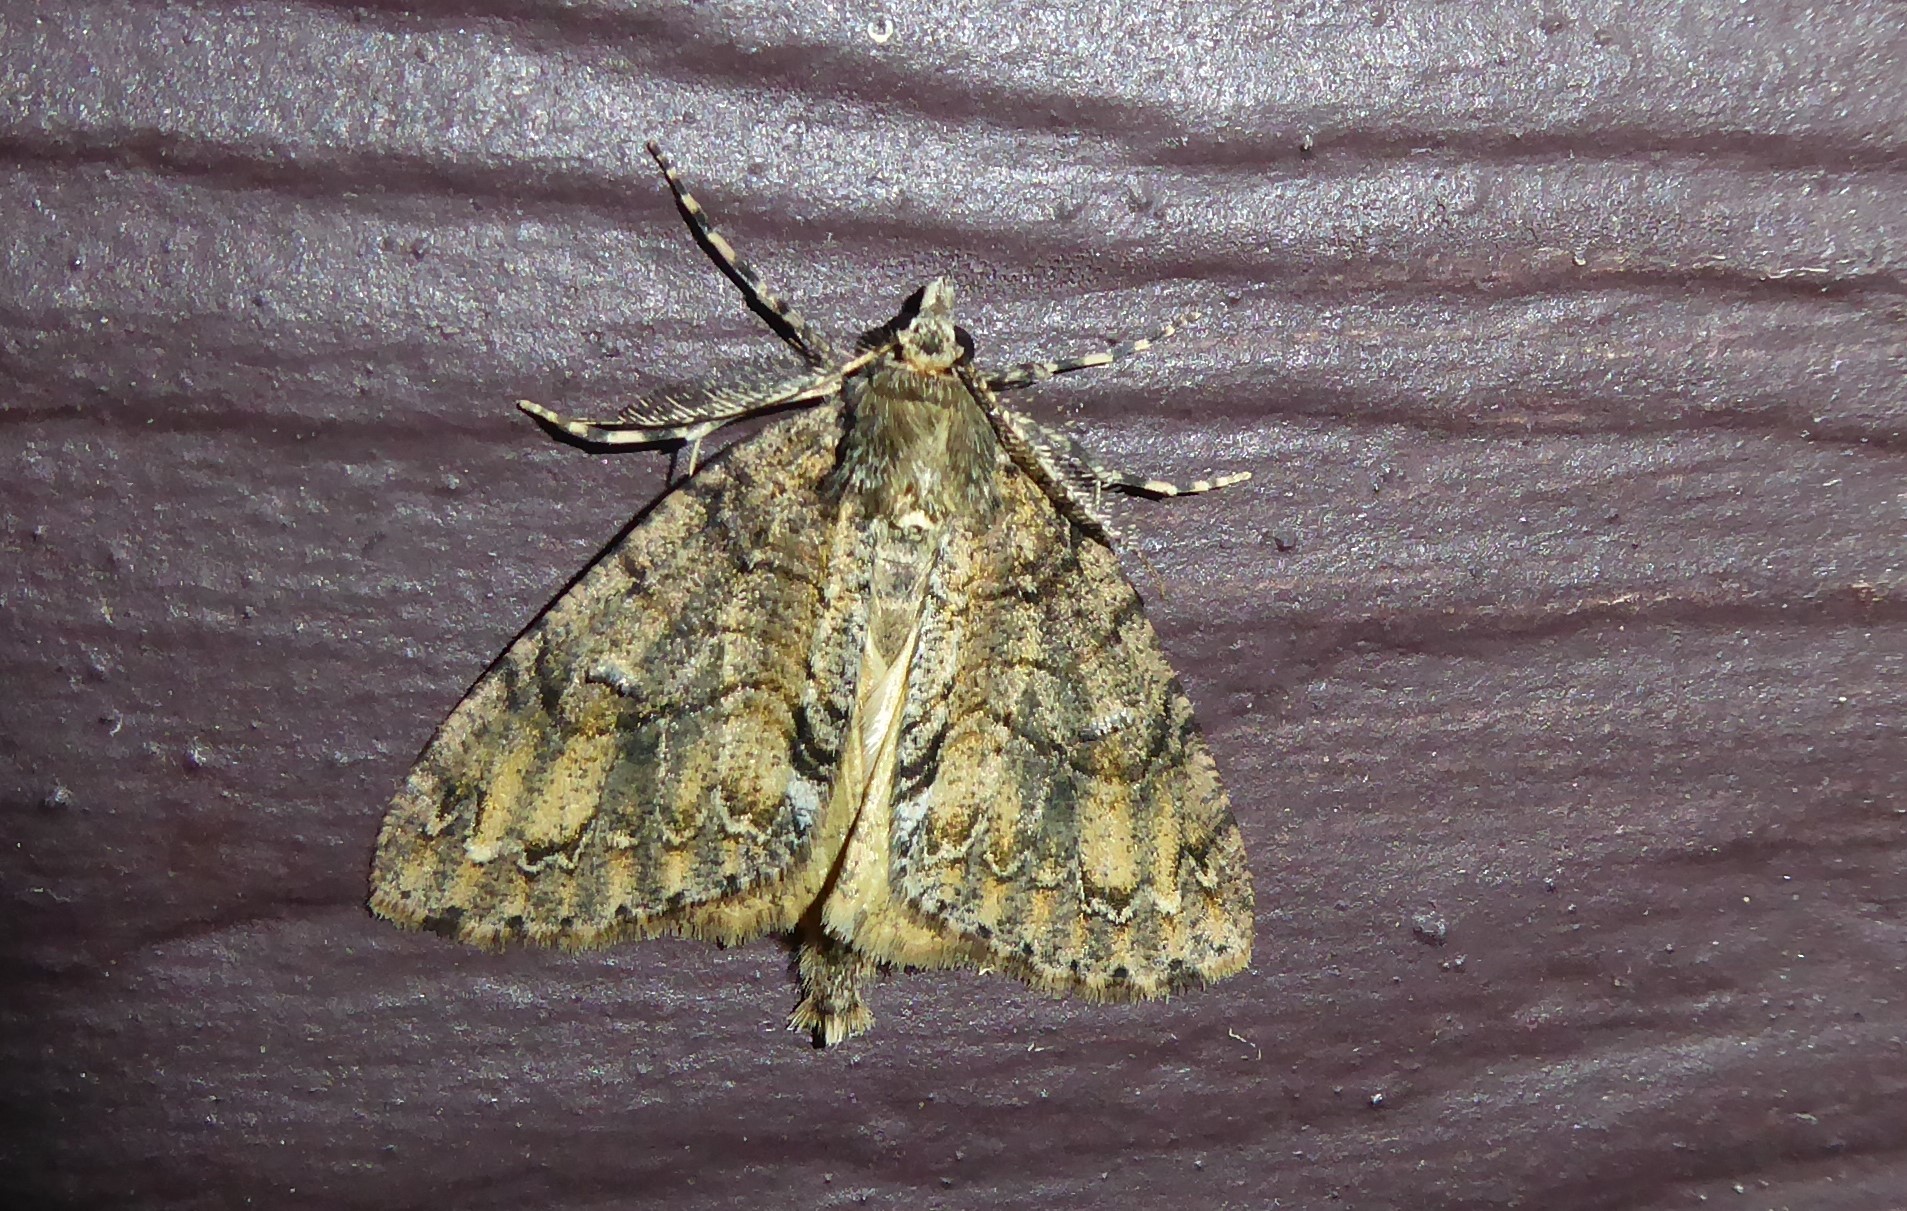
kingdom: Animalia
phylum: Arthropoda
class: Insecta
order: Lepidoptera
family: Geometridae
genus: Pseudocoremia
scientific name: Pseudocoremia suavis
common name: Common forest looper
